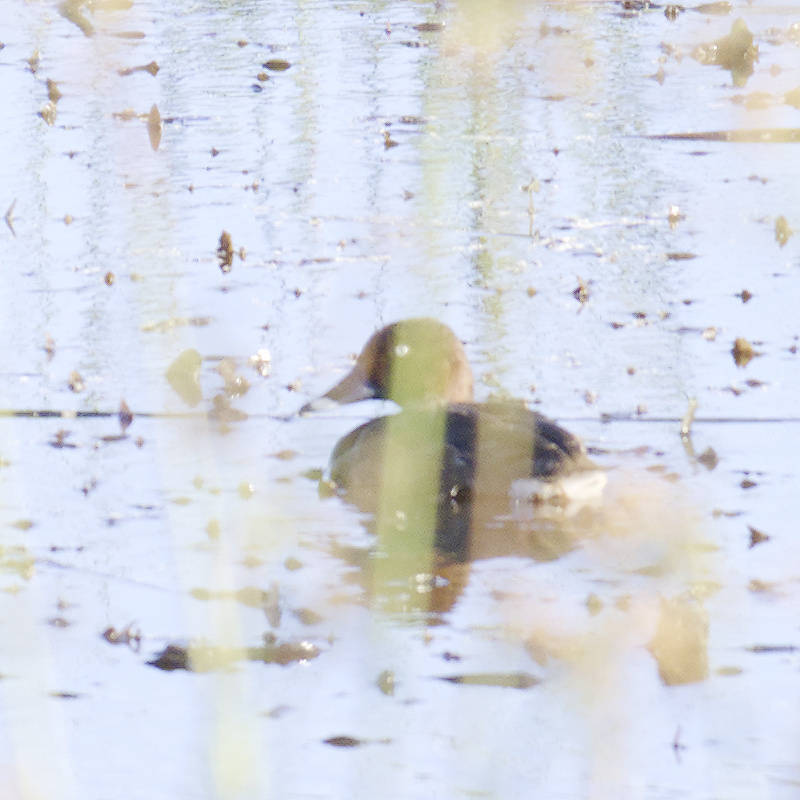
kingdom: Animalia
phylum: Chordata
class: Aves
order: Anseriformes
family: Anatidae
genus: Aythya
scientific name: Aythya australis
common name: Hardhead
